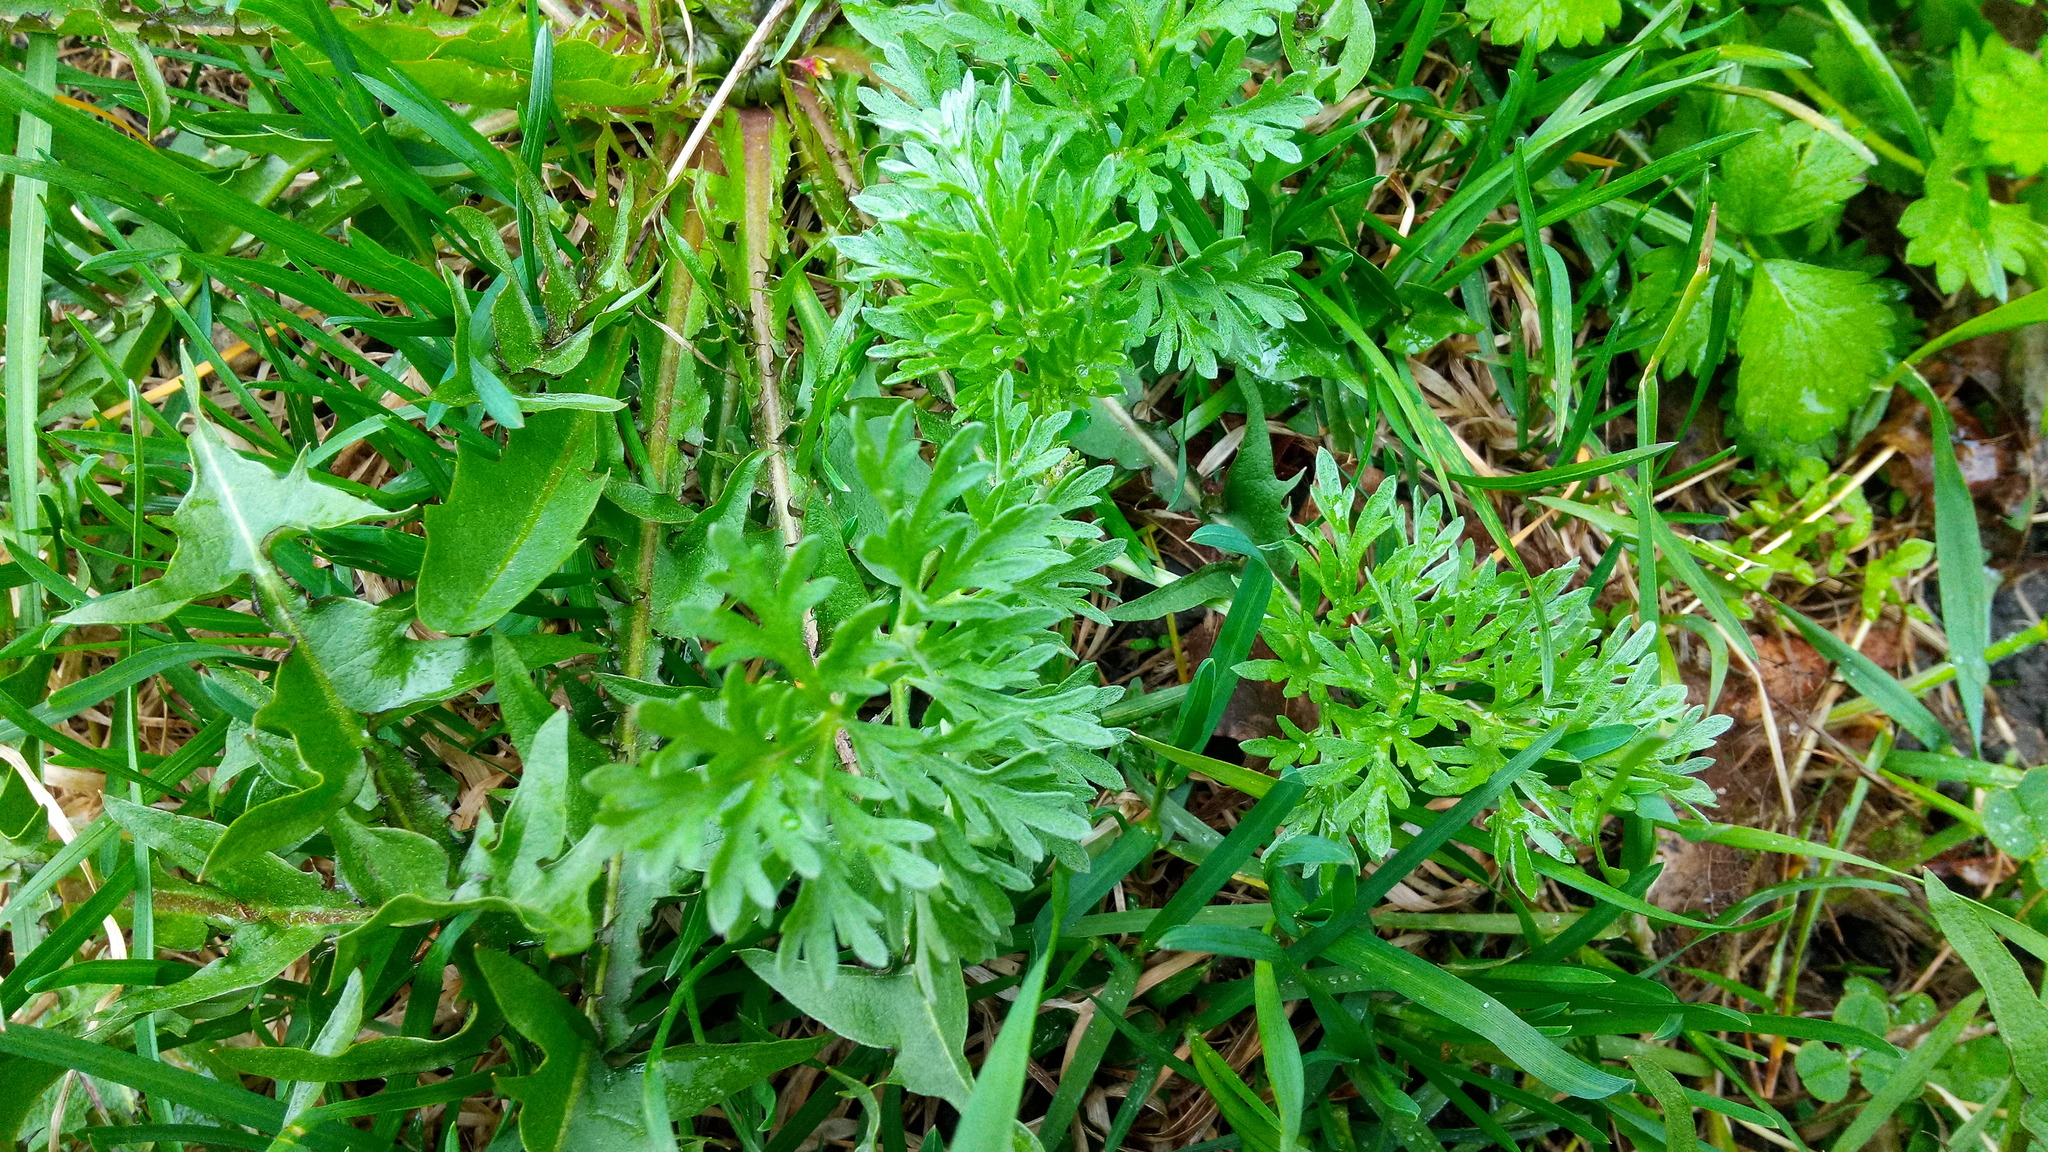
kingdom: Plantae
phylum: Tracheophyta
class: Magnoliopsida
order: Asterales
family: Asteraceae
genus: Artemisia
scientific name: Artemisia absinthium
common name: Wormwood
